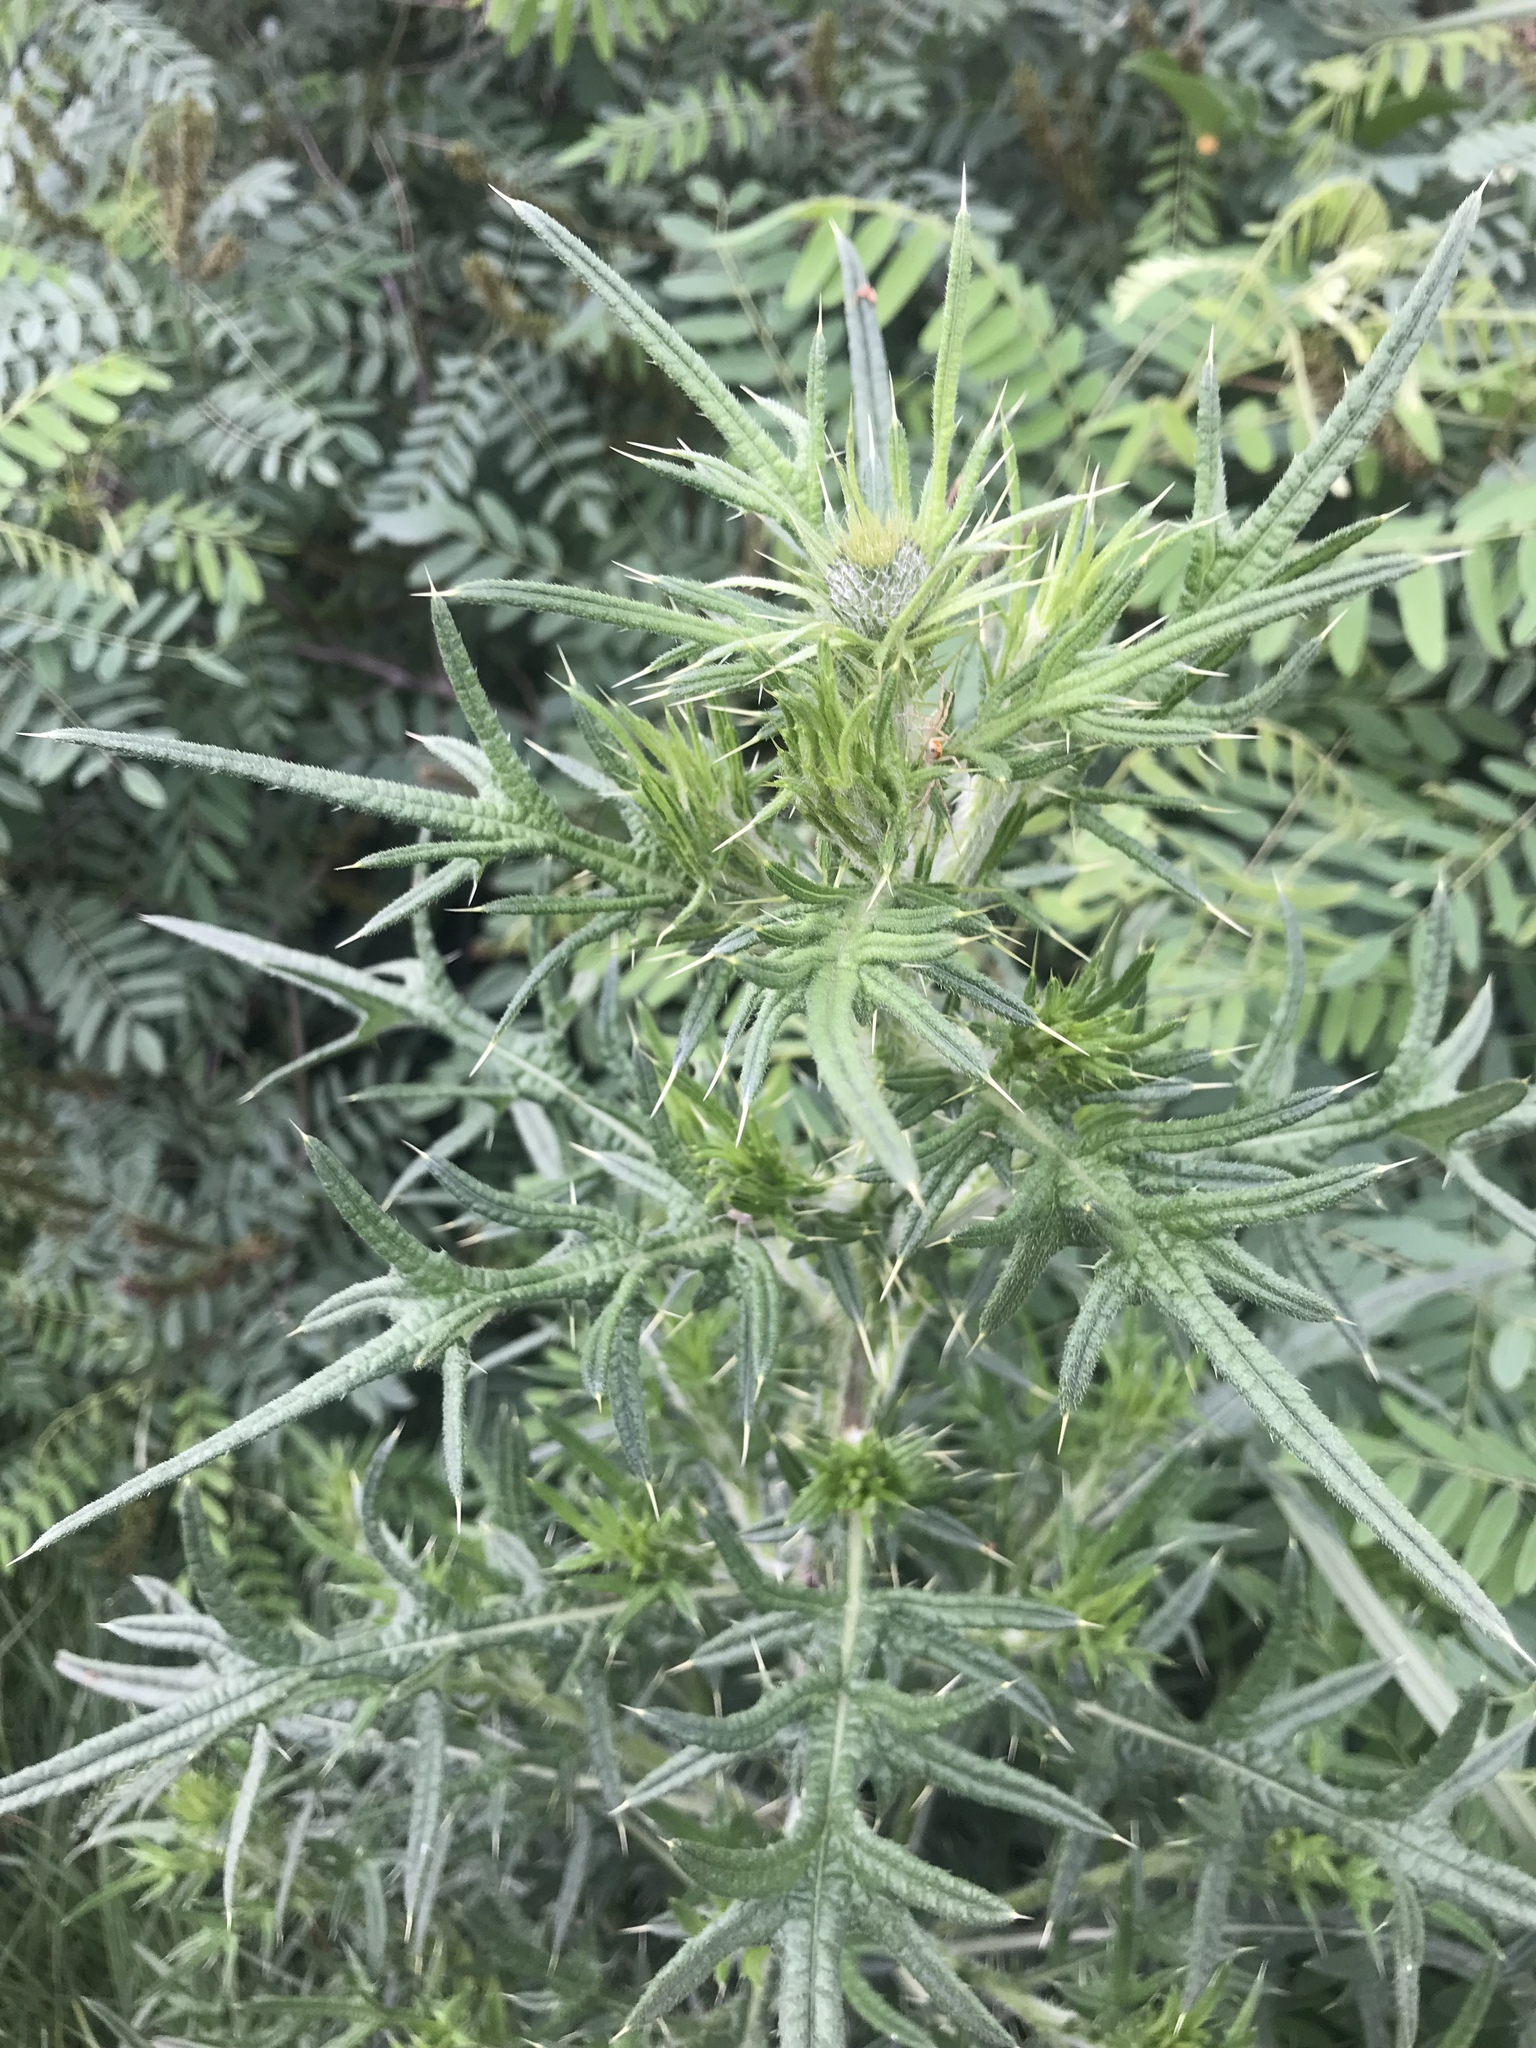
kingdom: Plantae
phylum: Tracheophyta
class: Magnoliopsida
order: Asterales
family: Asteraceae
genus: Cirsium
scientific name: Cirsium vulgare
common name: Bull thistle
